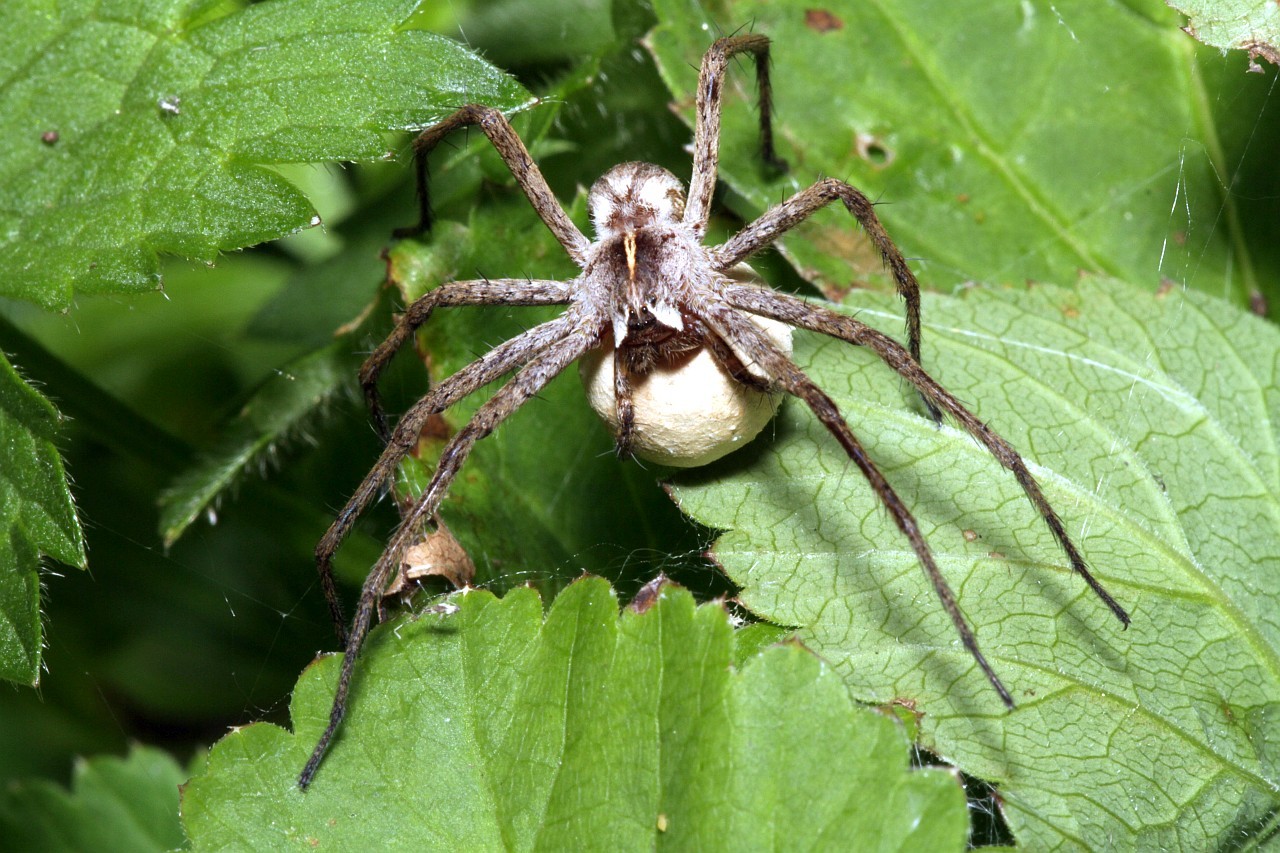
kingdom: Animalia
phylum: Arthropoda
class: Arachnida
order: Araneae
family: Pisauridae
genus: Pisaura
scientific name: Pisaura mirabilis
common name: Tent spider
